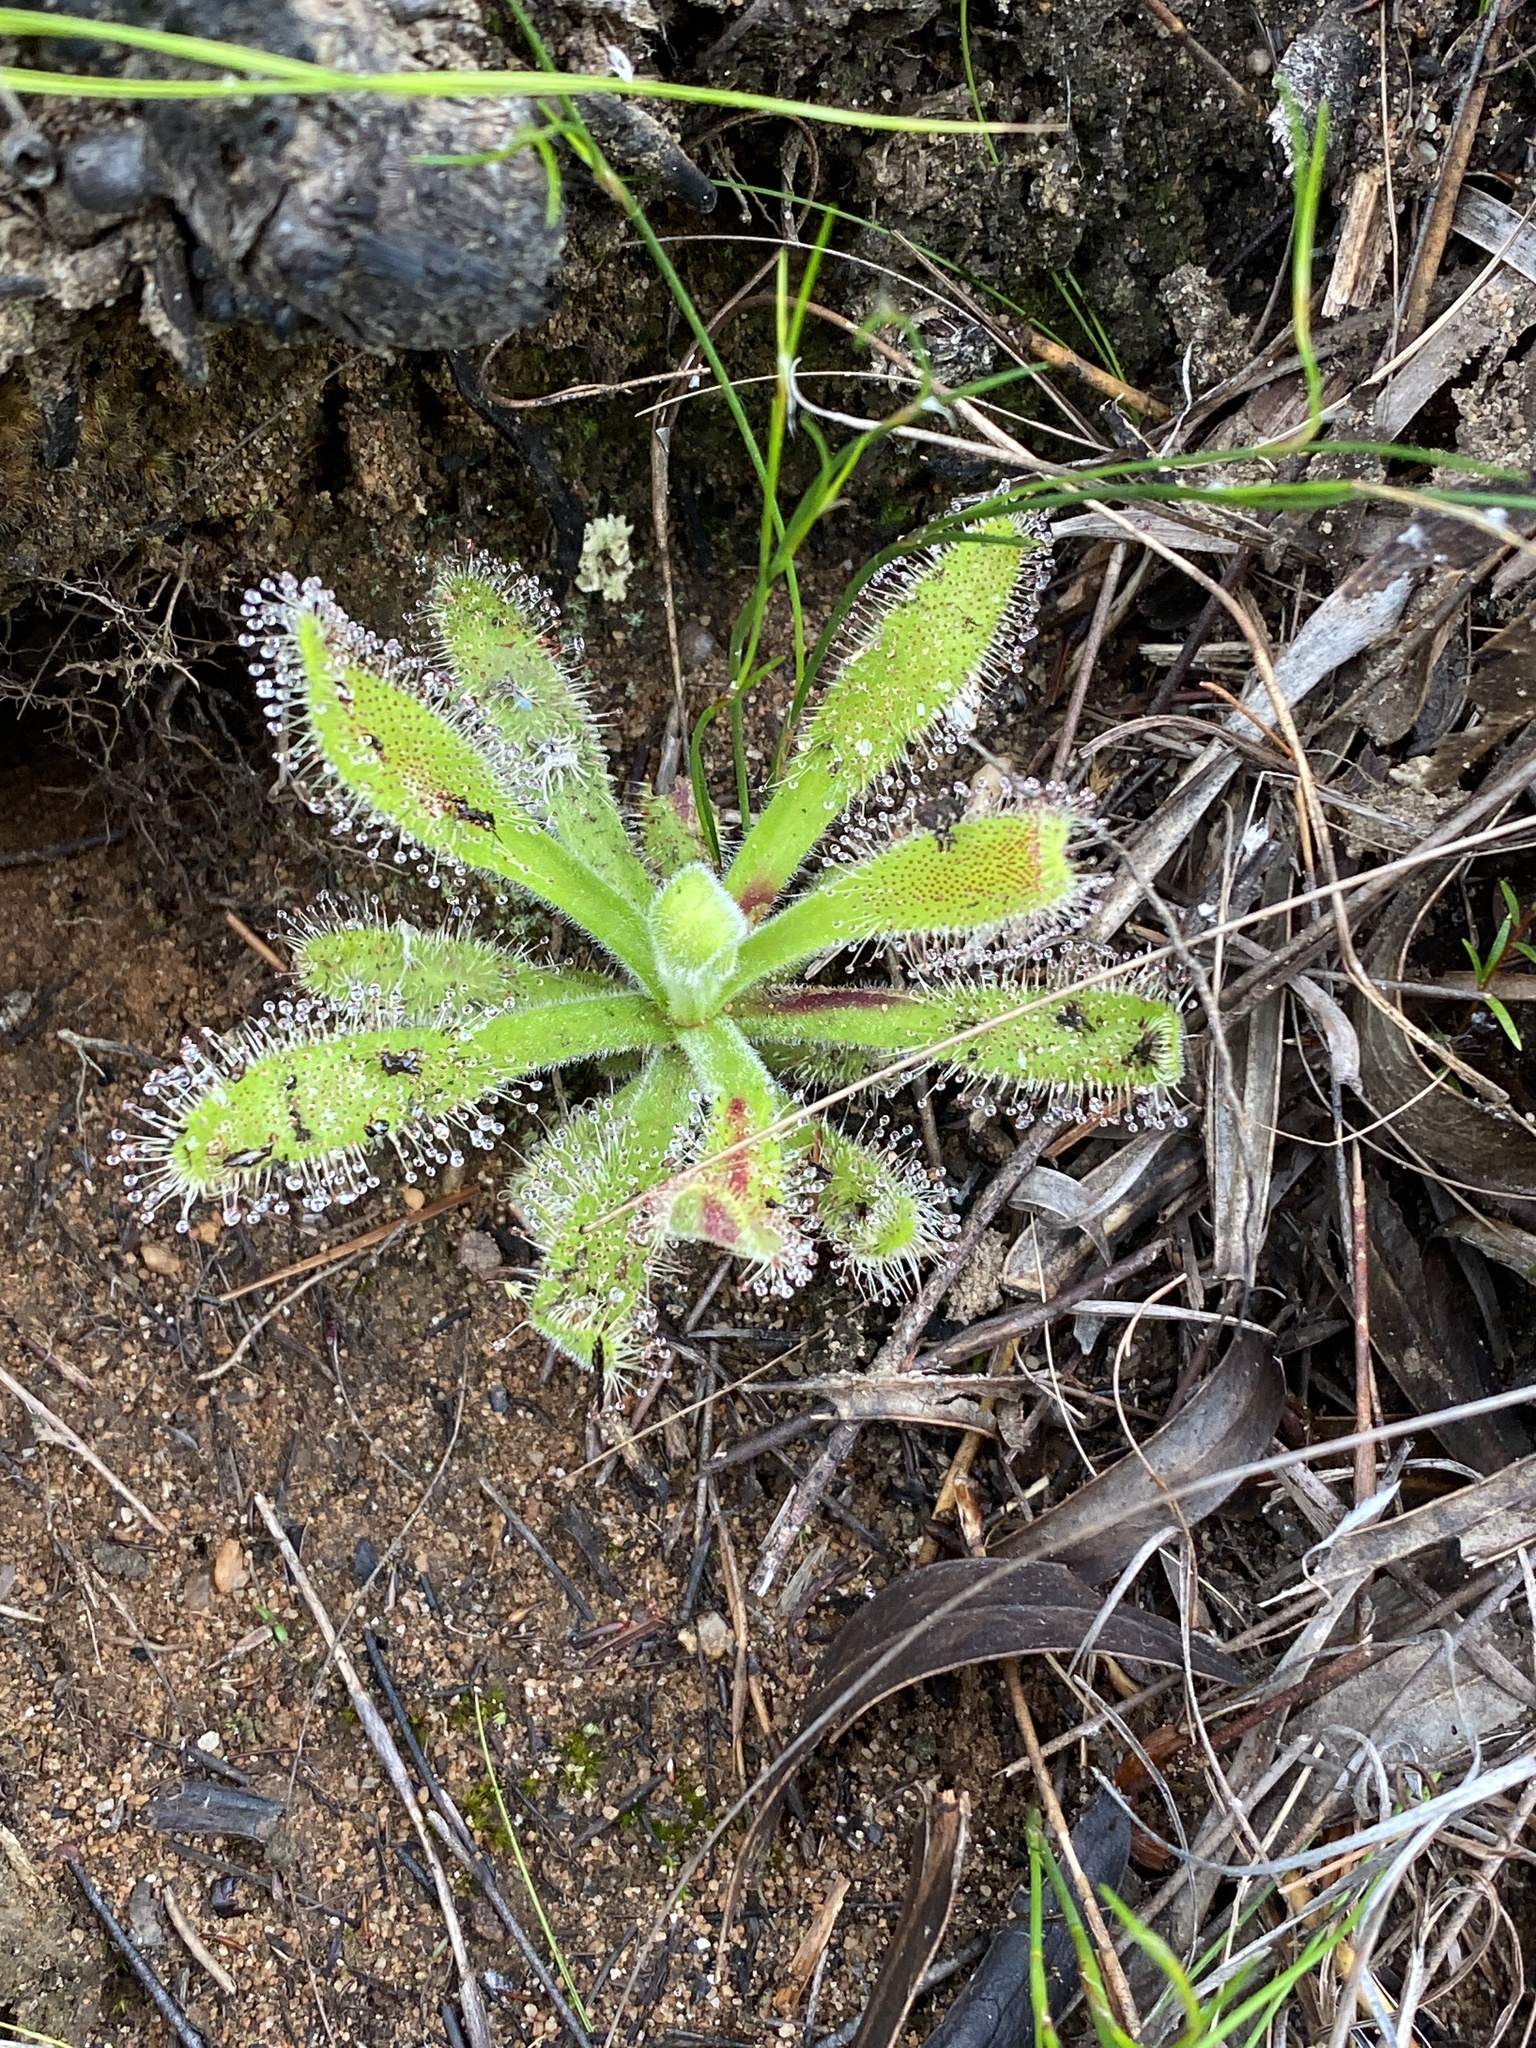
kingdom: Plantae
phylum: Tracheophyta
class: Magnoliopsida
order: Caryophyllales
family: Droseraceae
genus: Drosera
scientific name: Drosera hilaris
